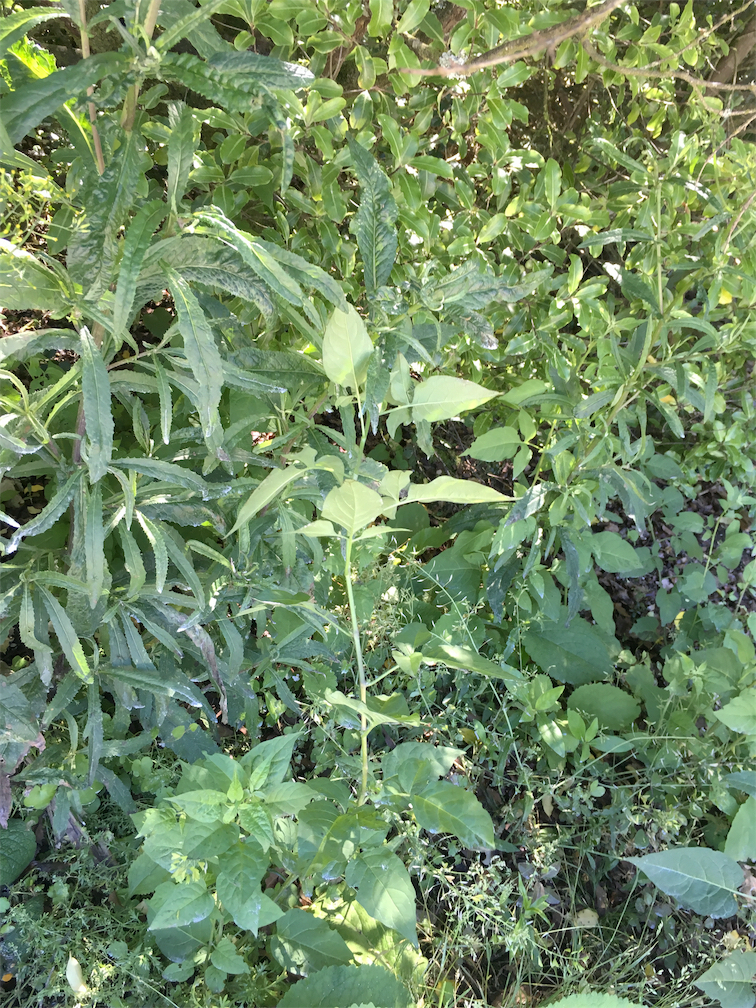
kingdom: Plantae
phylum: Tracheophyta
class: Magnoliopsida
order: Solanales
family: Solanaceae
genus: Solanum
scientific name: Solanum dulcamara
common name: Climbing nightshade
